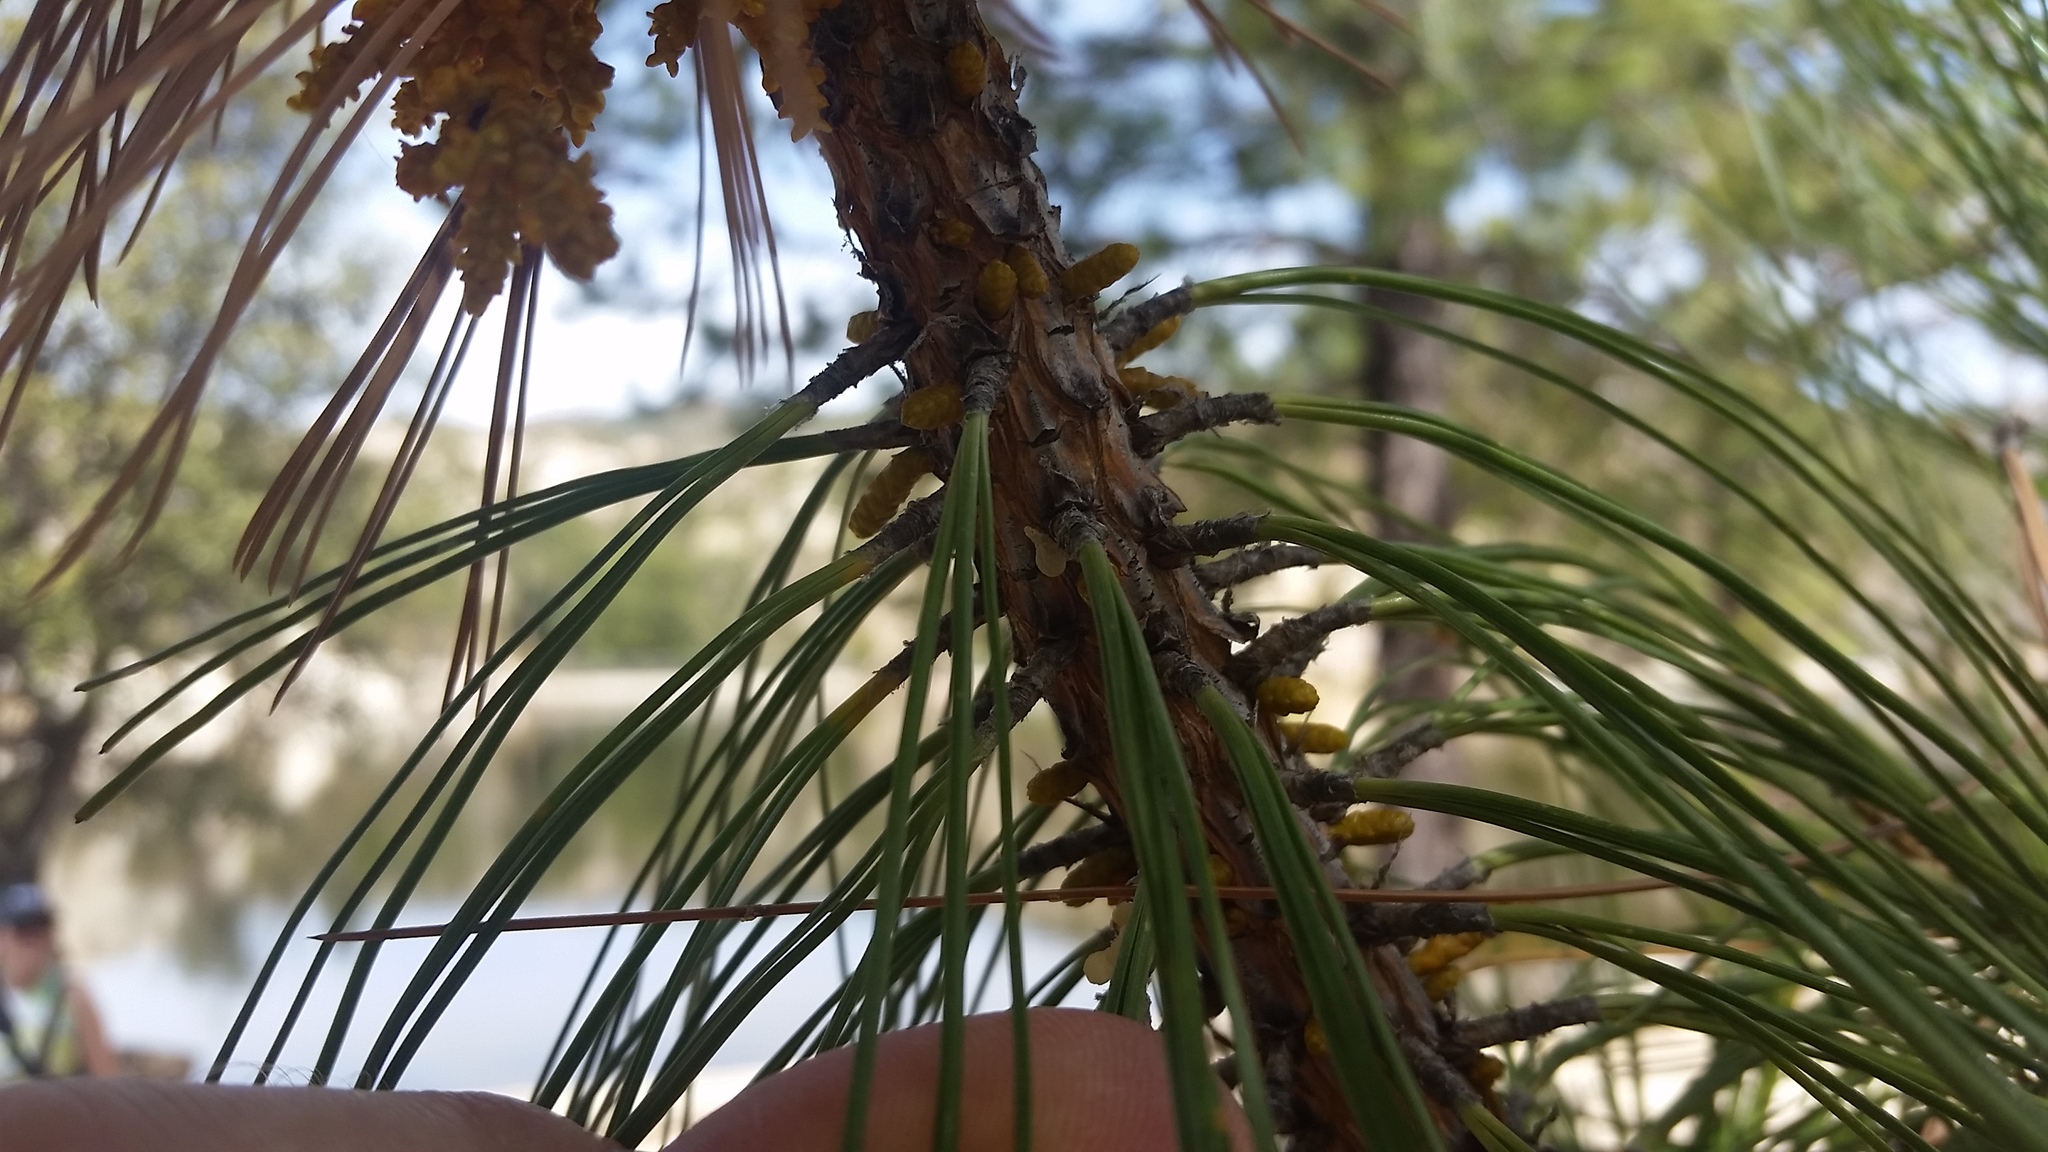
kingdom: Plantae
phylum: Tracheophyta
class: Pinopsida
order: Pinales
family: Pinaceae
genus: Pinus
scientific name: Pinus arizonica
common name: Arizona pine
